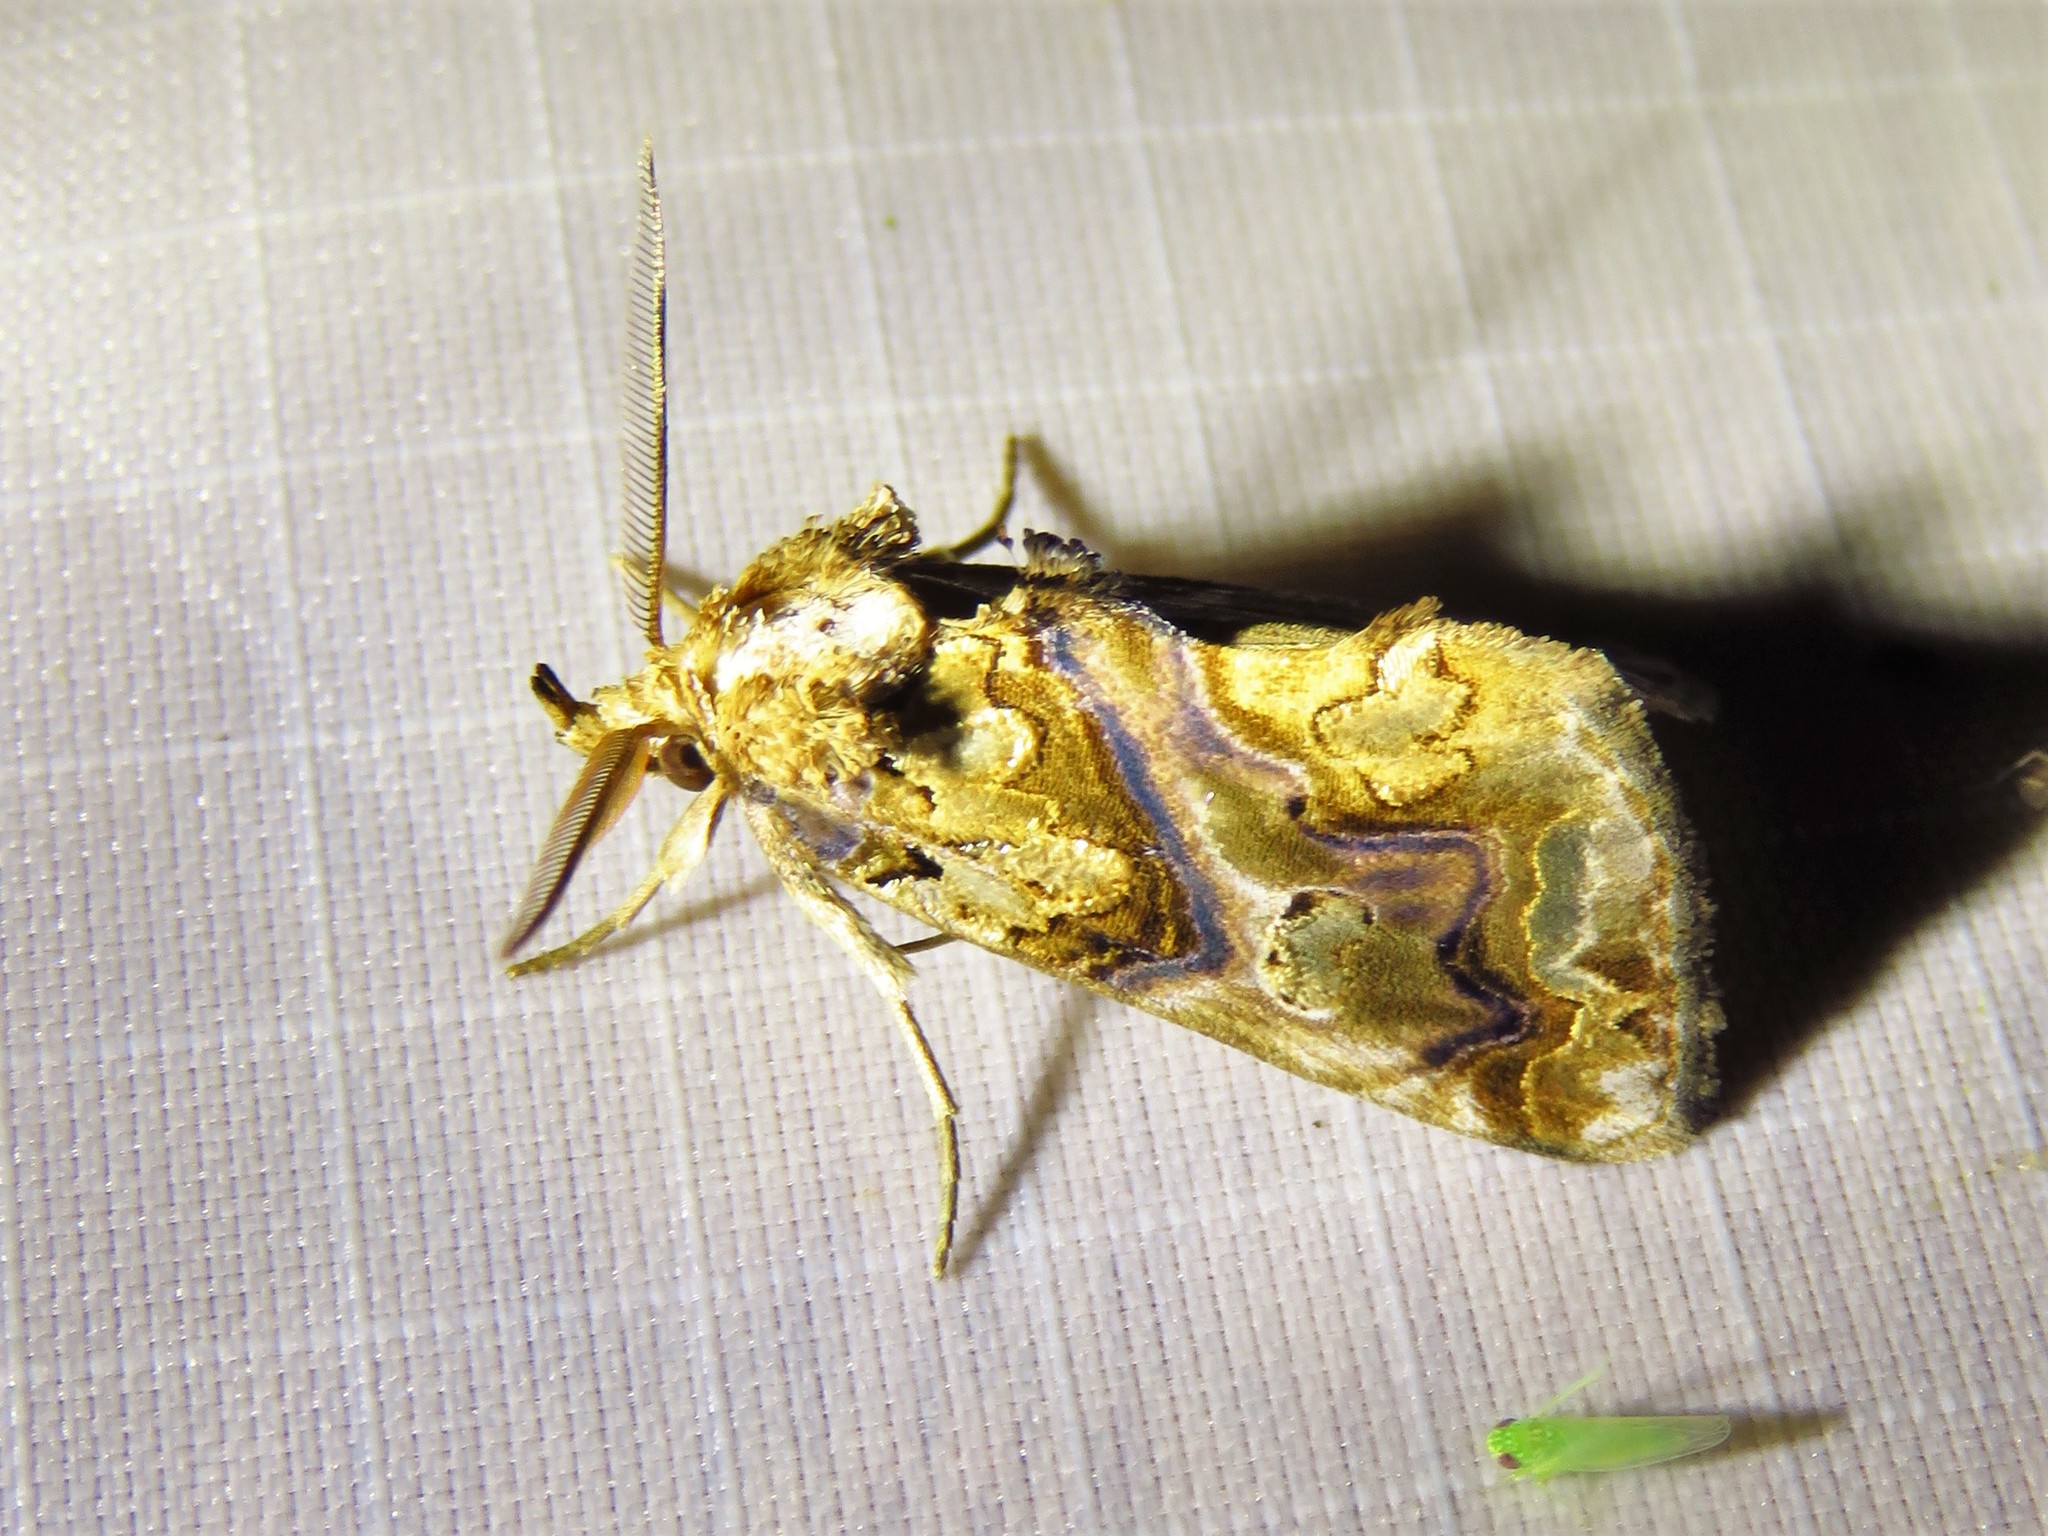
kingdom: Animalia
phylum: Arthropoda
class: Insecta
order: Lepidoptera
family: Erebidae
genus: Plusiodonta
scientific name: Plusiodonta compressipalpis
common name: Moonseed moth
